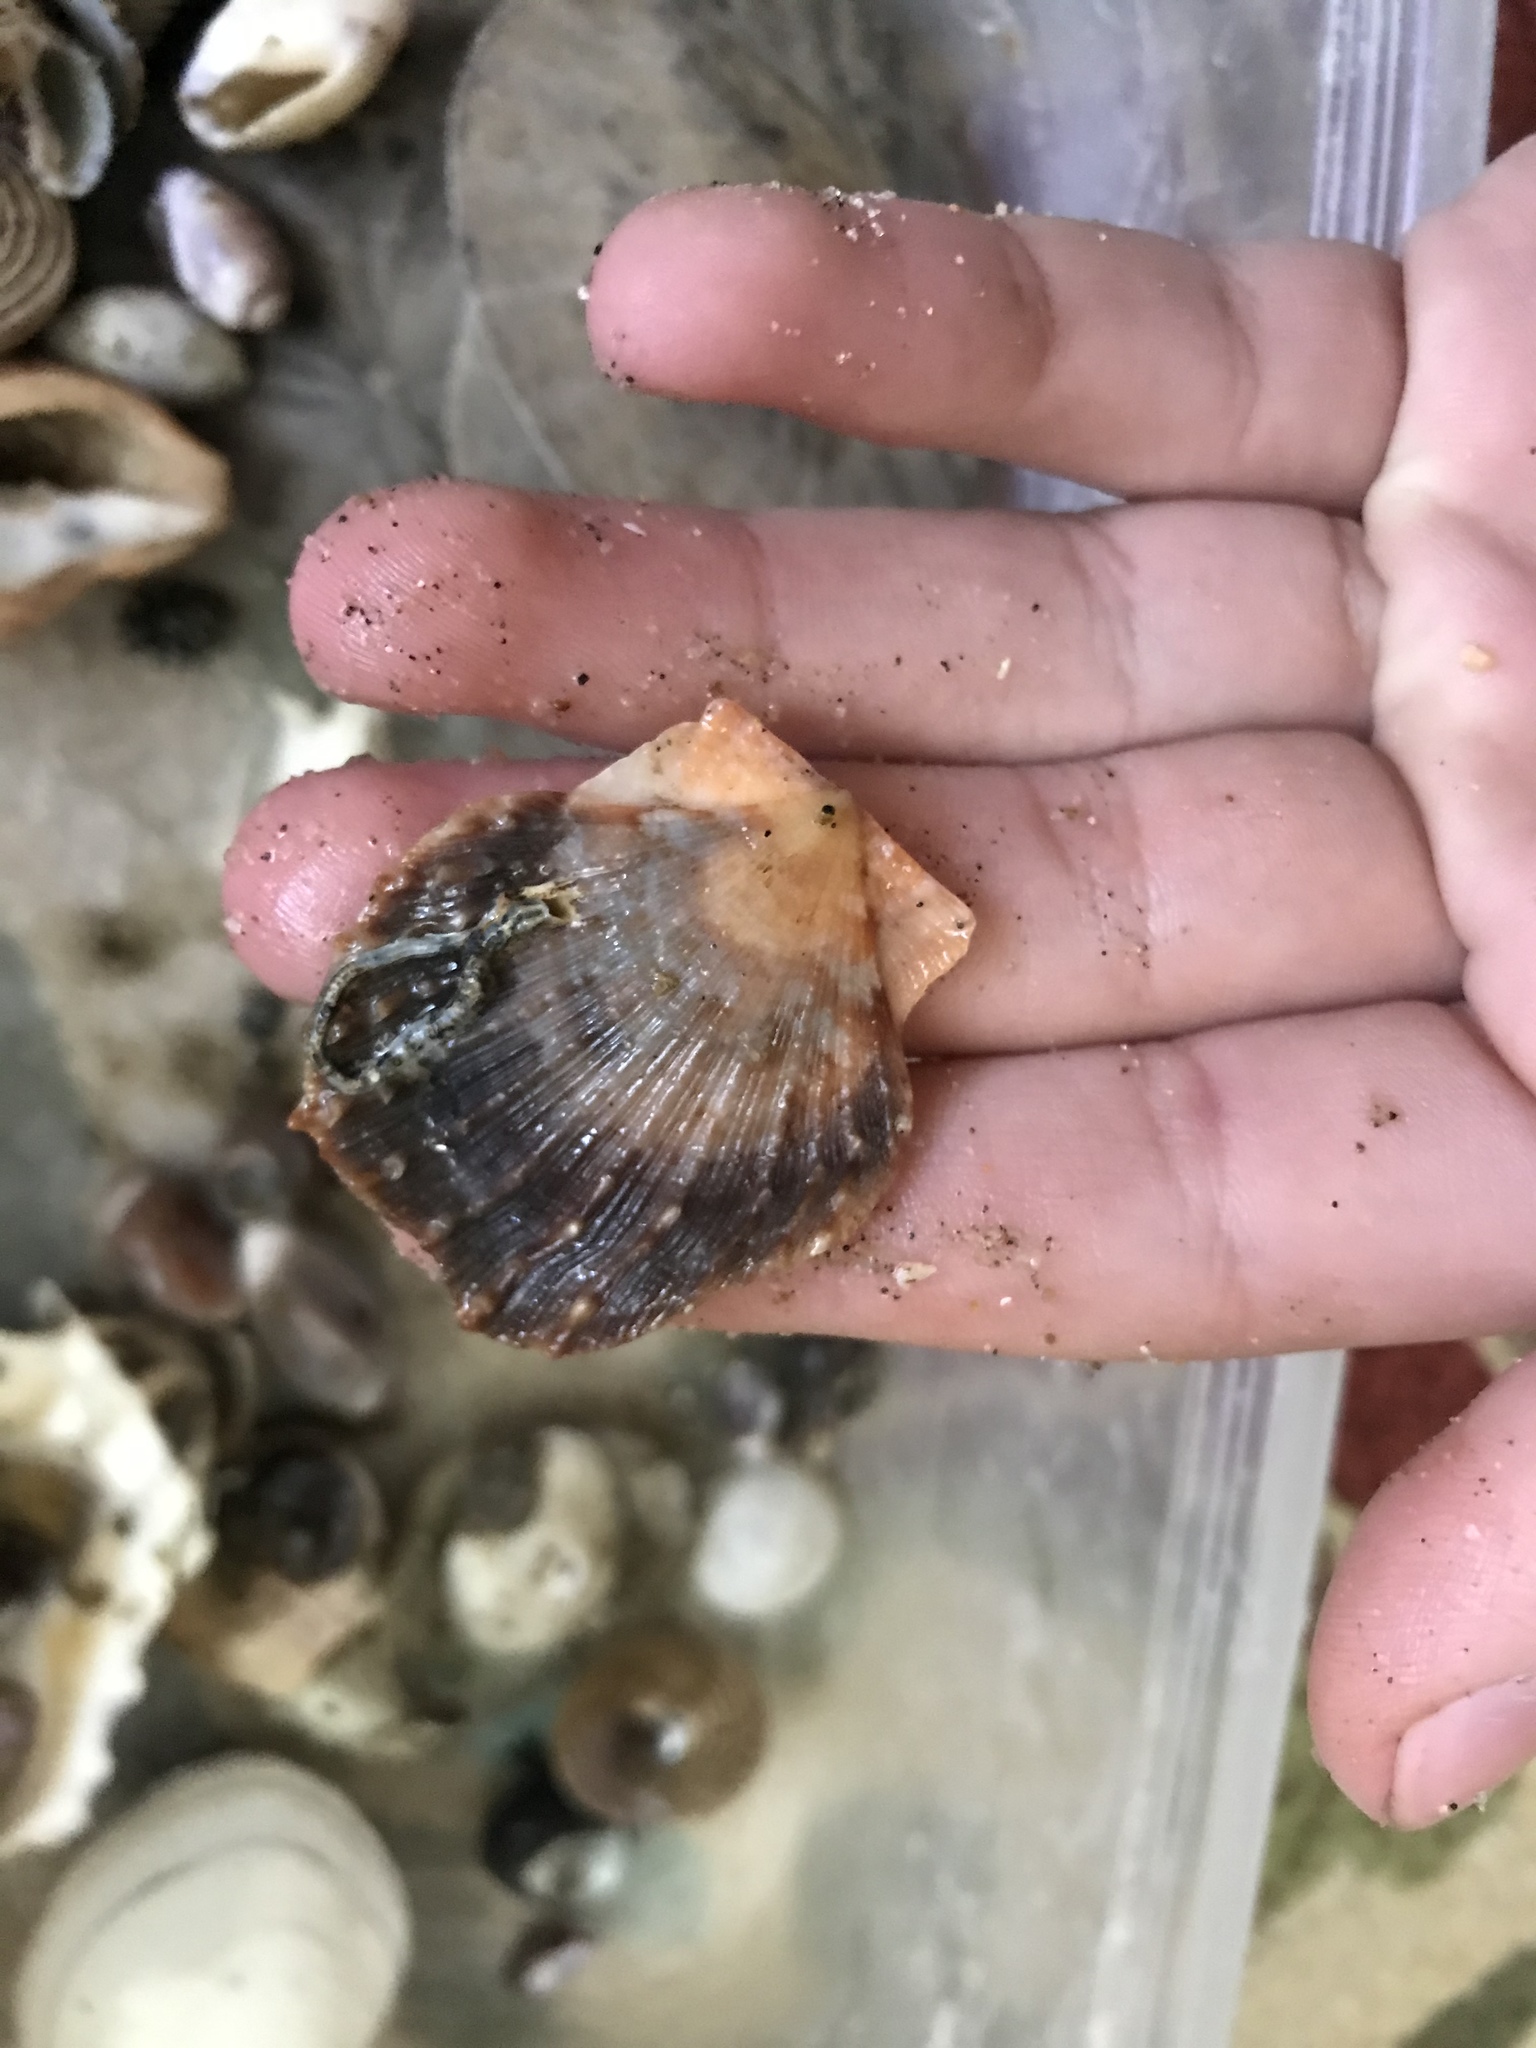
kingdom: Animalia
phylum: Mollusca
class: Bivalvia
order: Pectinida
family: Pectinidae
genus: Crassadoma
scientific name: Crassadoma gigantea
